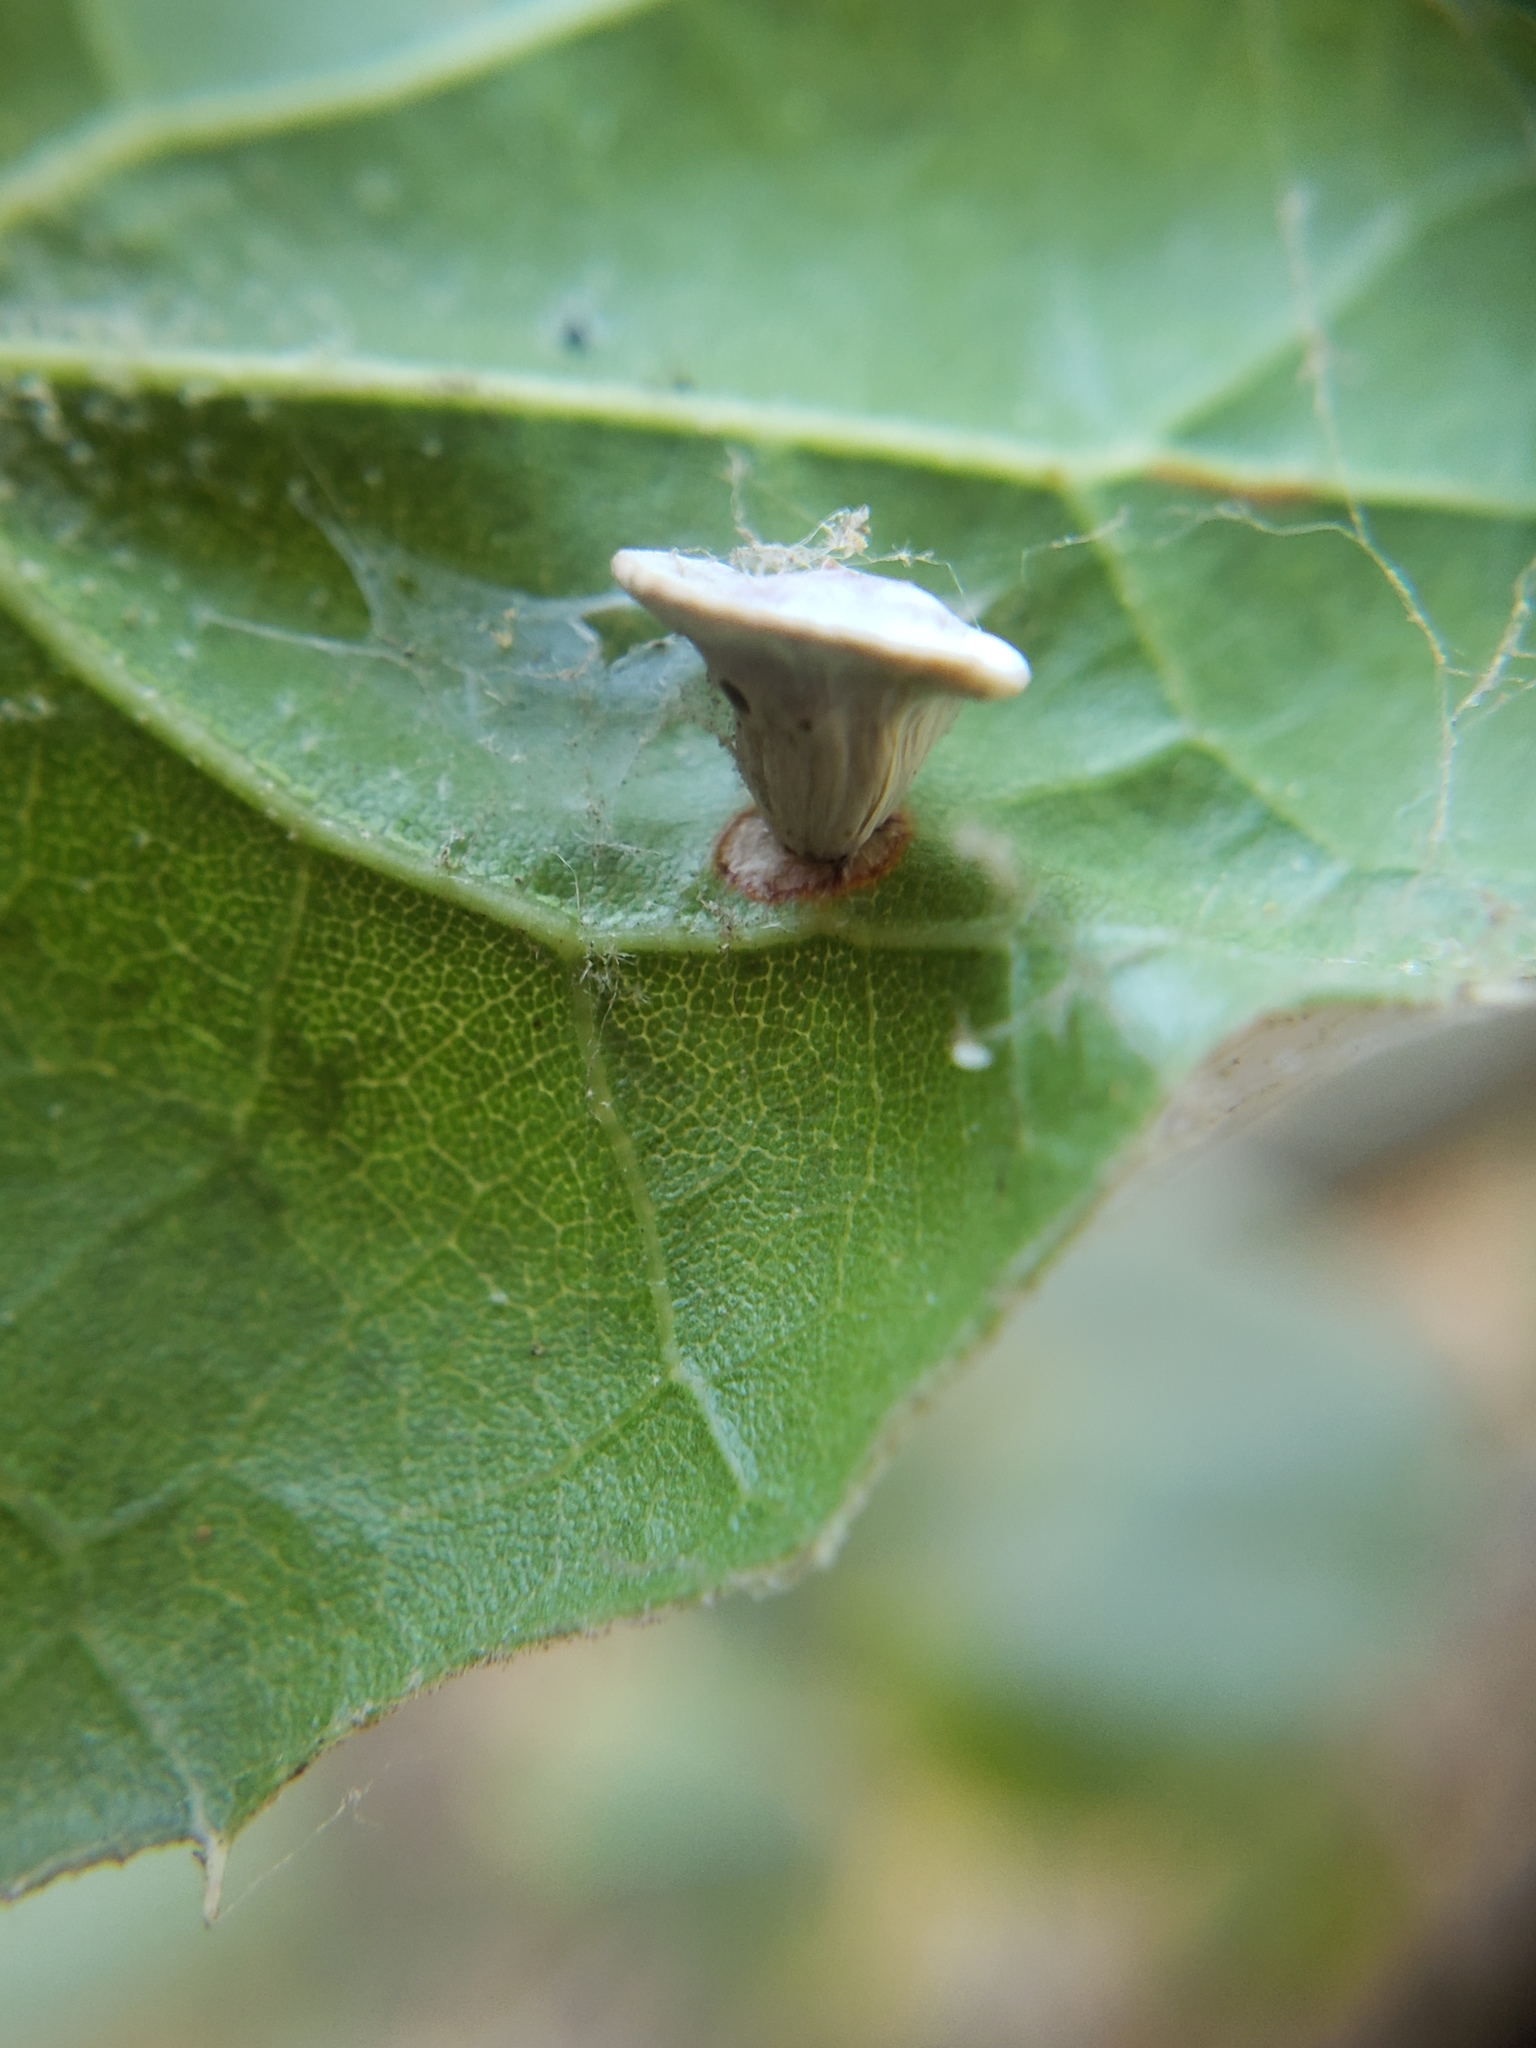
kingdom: Animalia
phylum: Arthropoda
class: Insecta
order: Hymenoptera
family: Cynipidae
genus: Amphibolips
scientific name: Amphibolips quercuspomiformis
